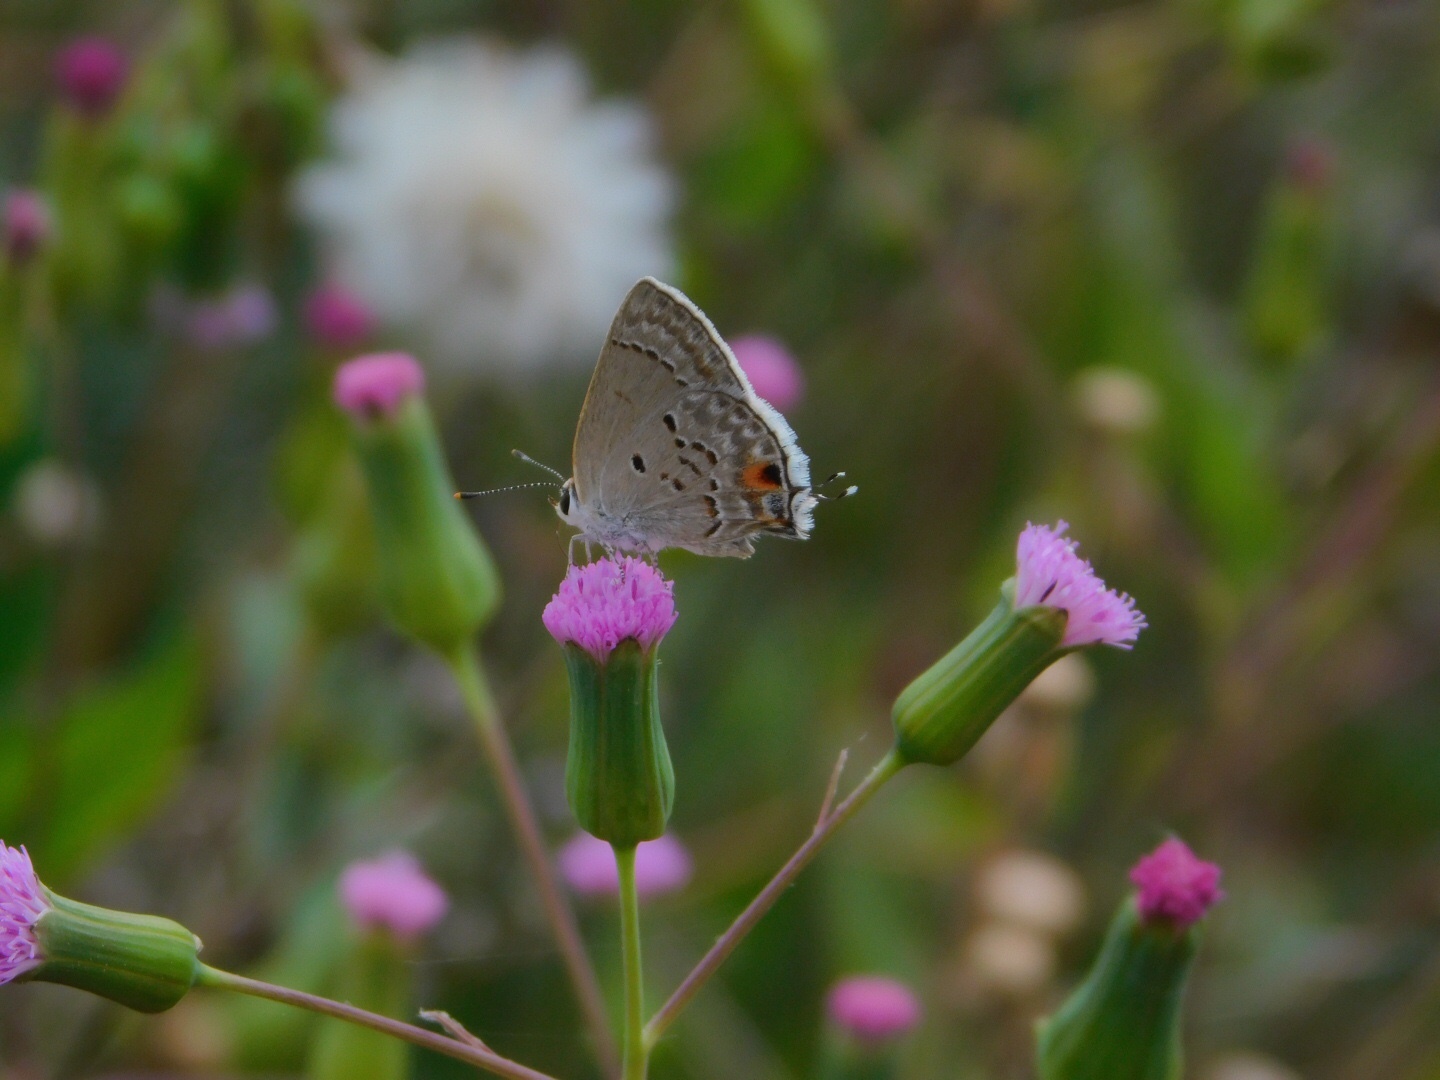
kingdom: Animalia
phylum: Arthropoda
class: Insecta
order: Lepidoptera
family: Lycaenidae
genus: Callicista
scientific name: Callicista columella
